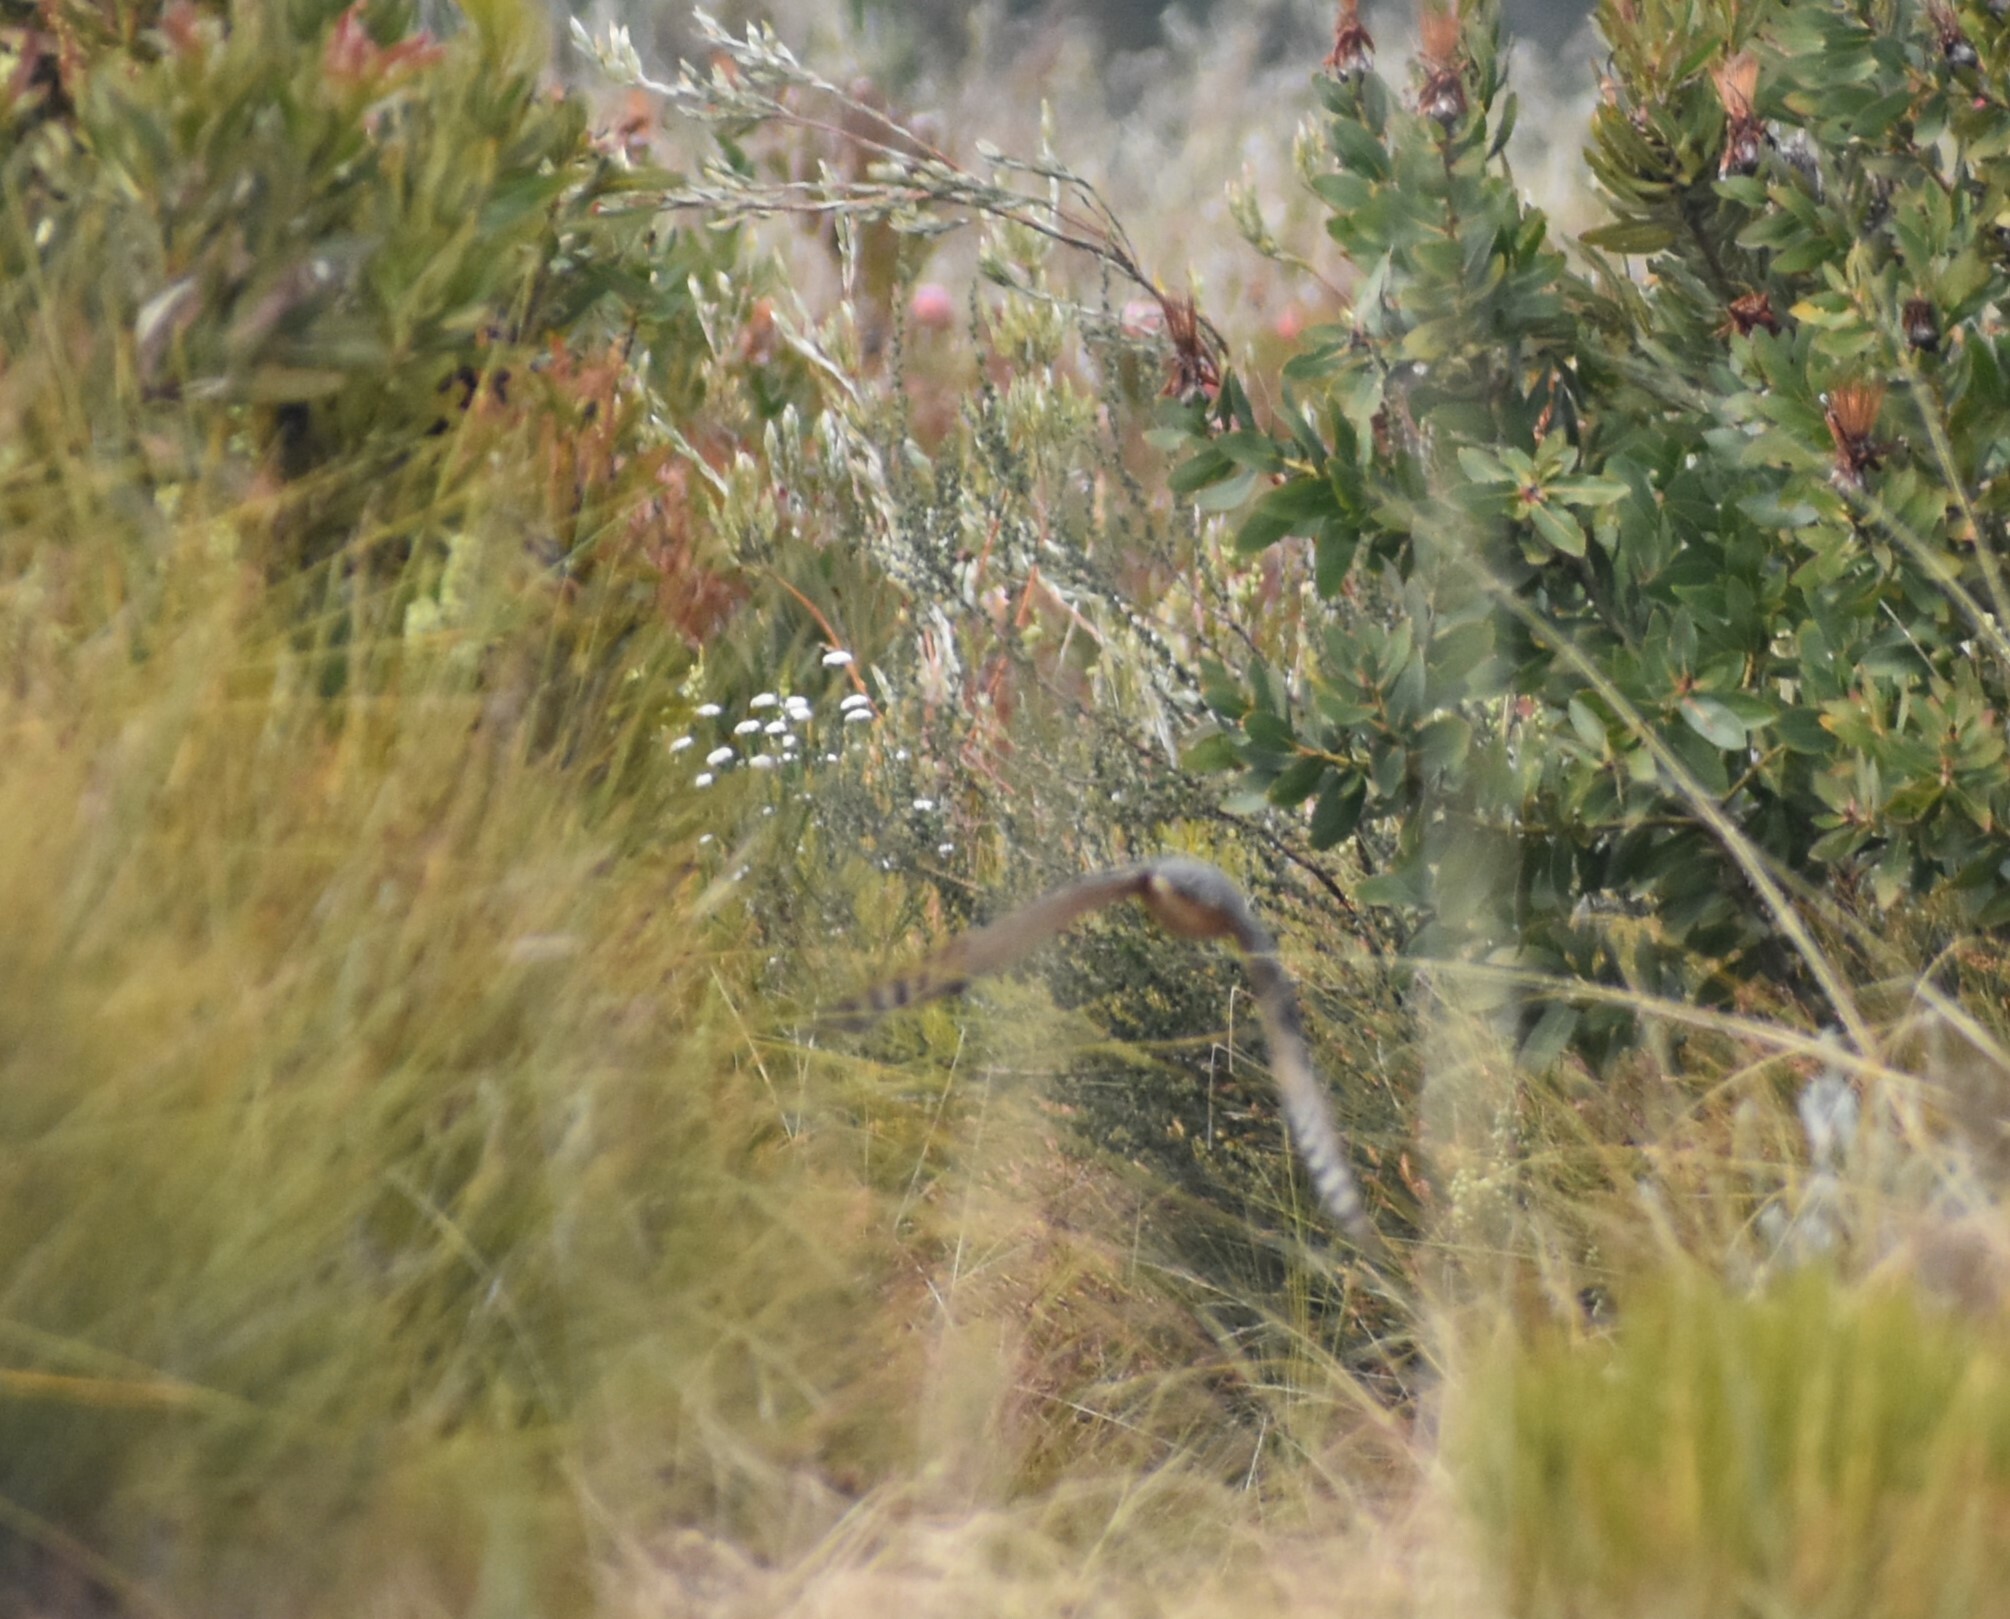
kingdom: Animalia
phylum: Chordata
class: Aves
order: Accipitriformes
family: Accipitridae
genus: Accipiter
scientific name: Accipiter rufiventris
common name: Rufous-breasted sparrowhawk
